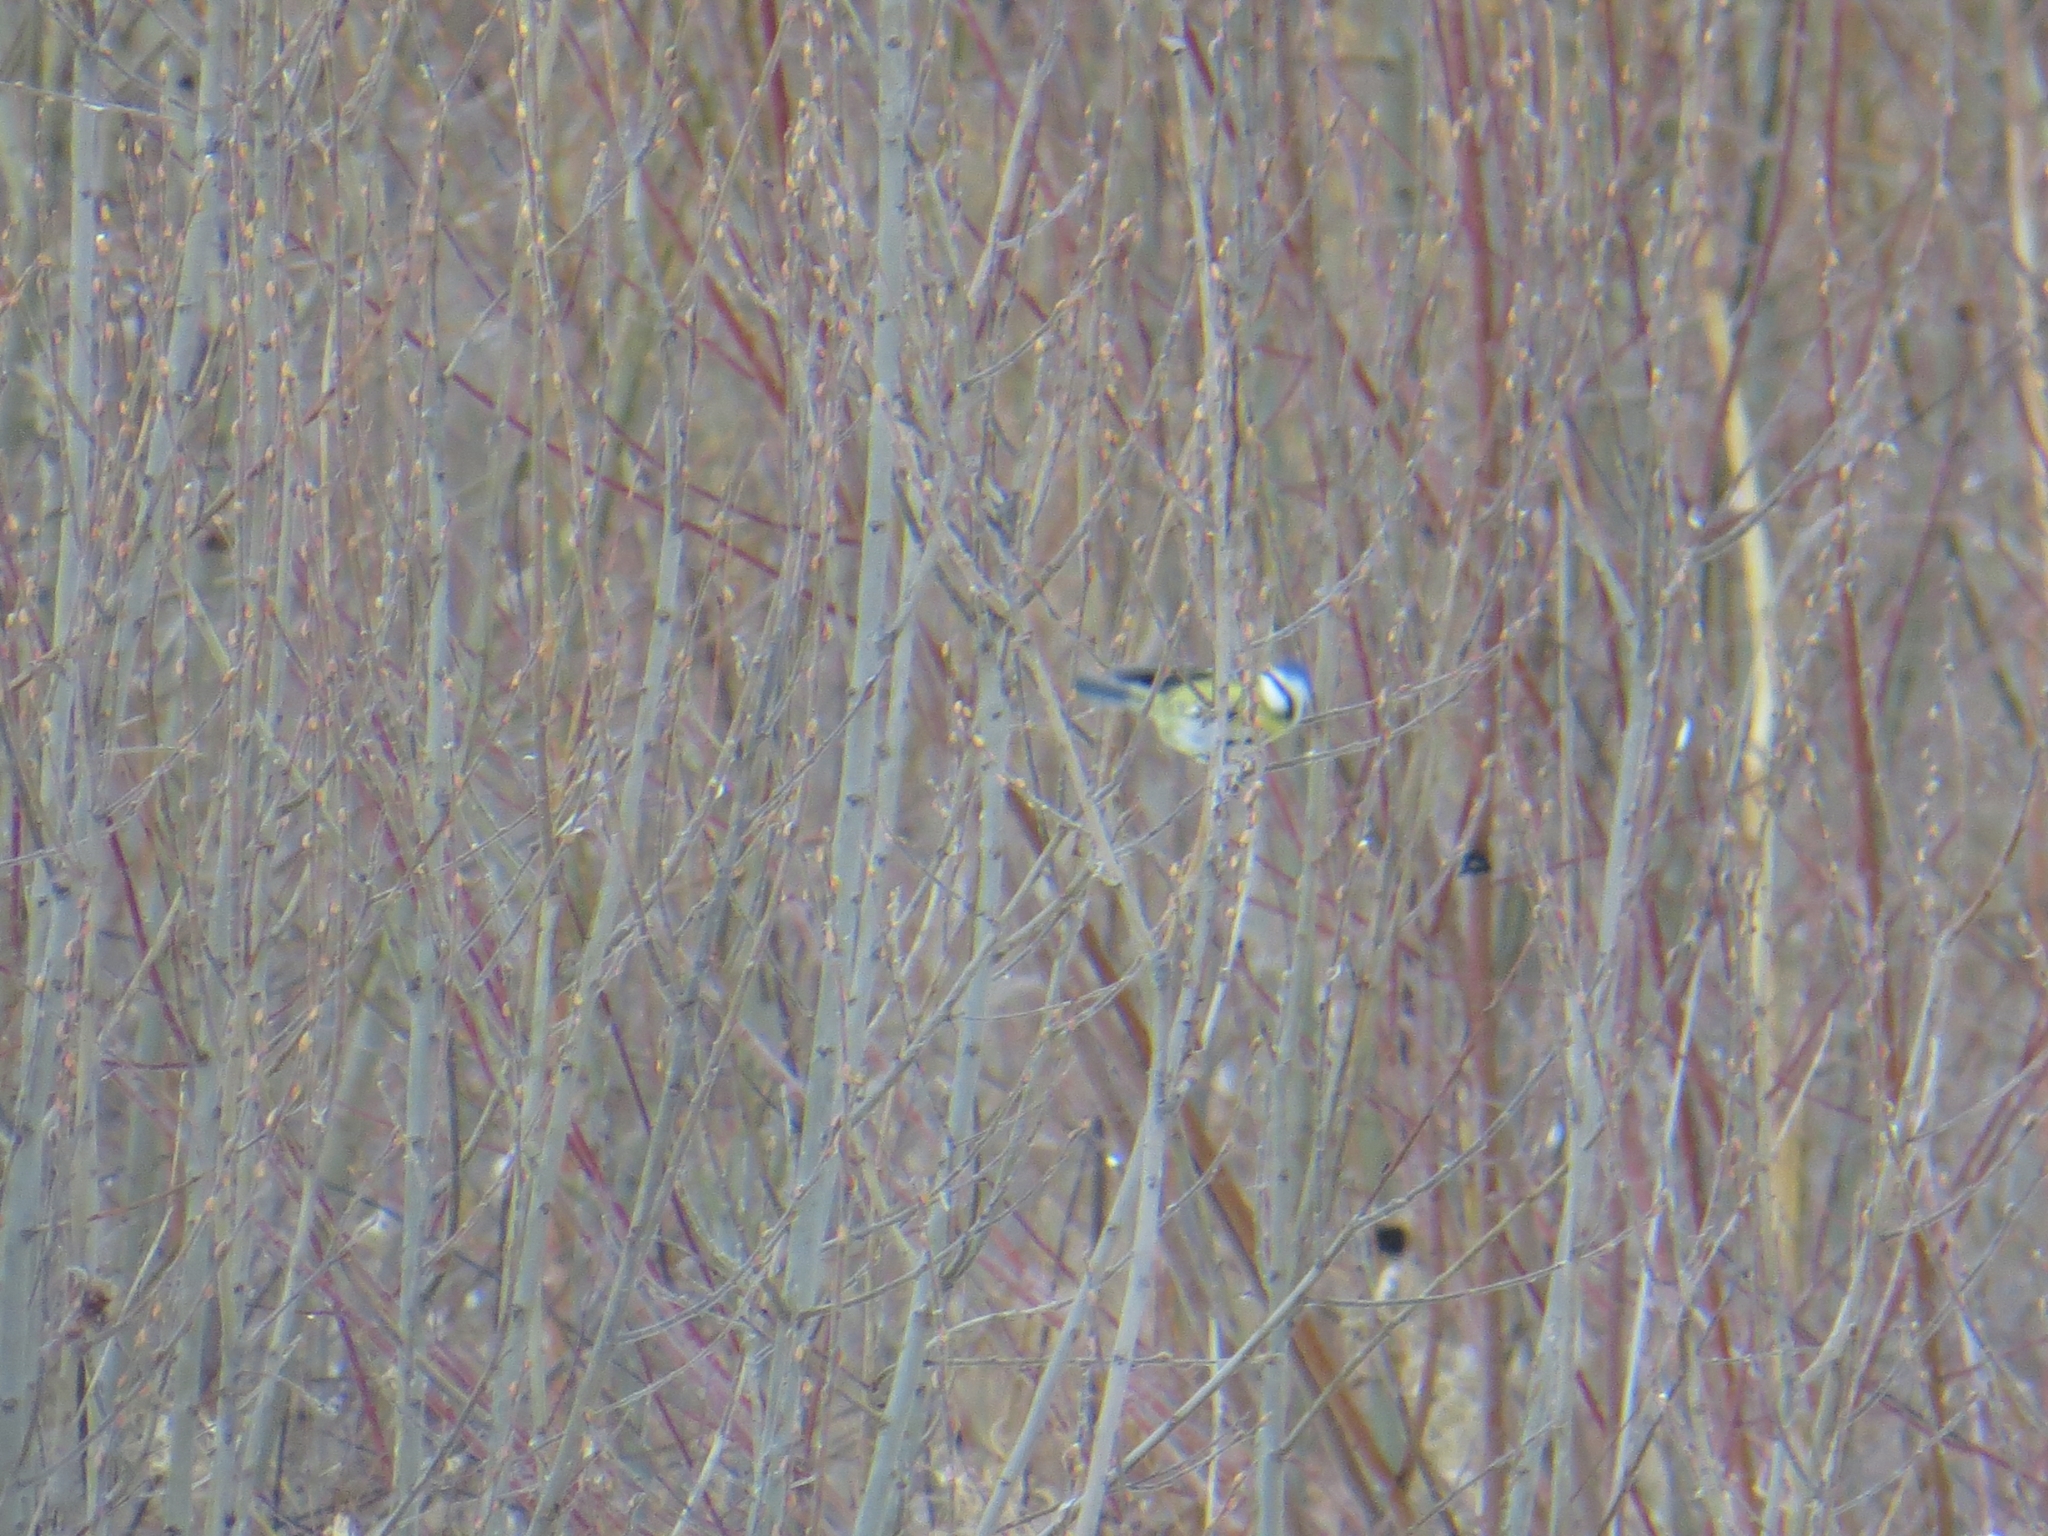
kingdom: Animalia
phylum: Chordata
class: Aves
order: Passeriformes
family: Paridae
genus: Cyanistes
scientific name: Cyanistes caeruleus
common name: Eurasian blue tit
